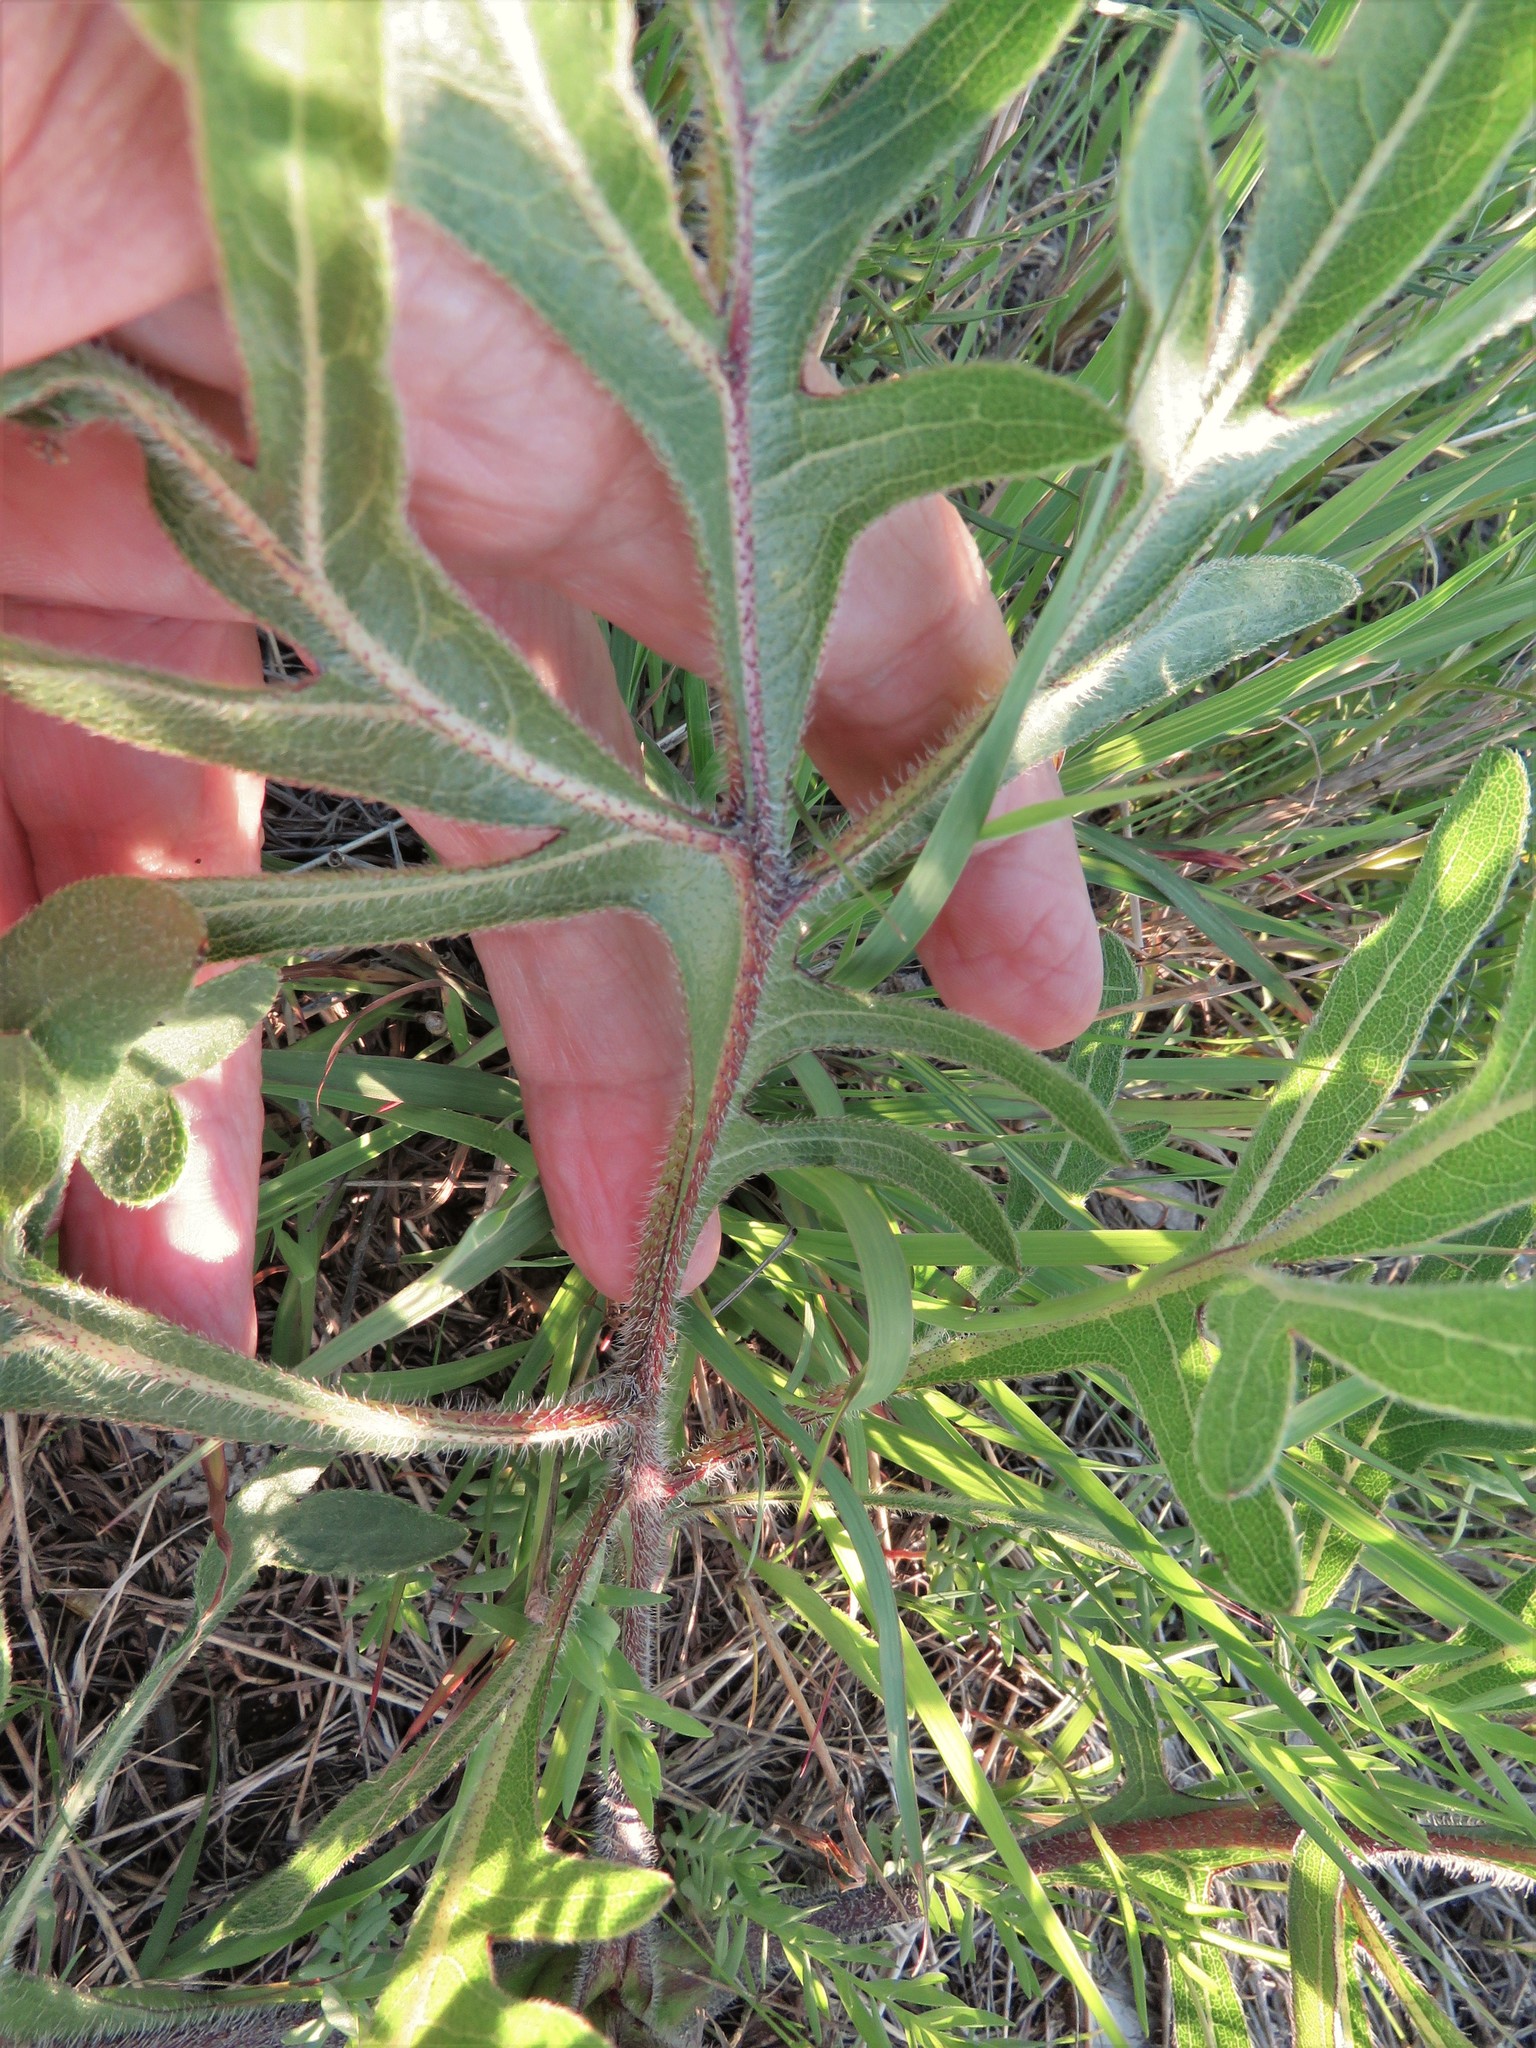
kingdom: Plantae
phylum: Tracheophyta
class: Magnoliopsida
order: Asterales
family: Asteraceae
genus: Silphium
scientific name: Silphium albiflorum
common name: White rosinweed
